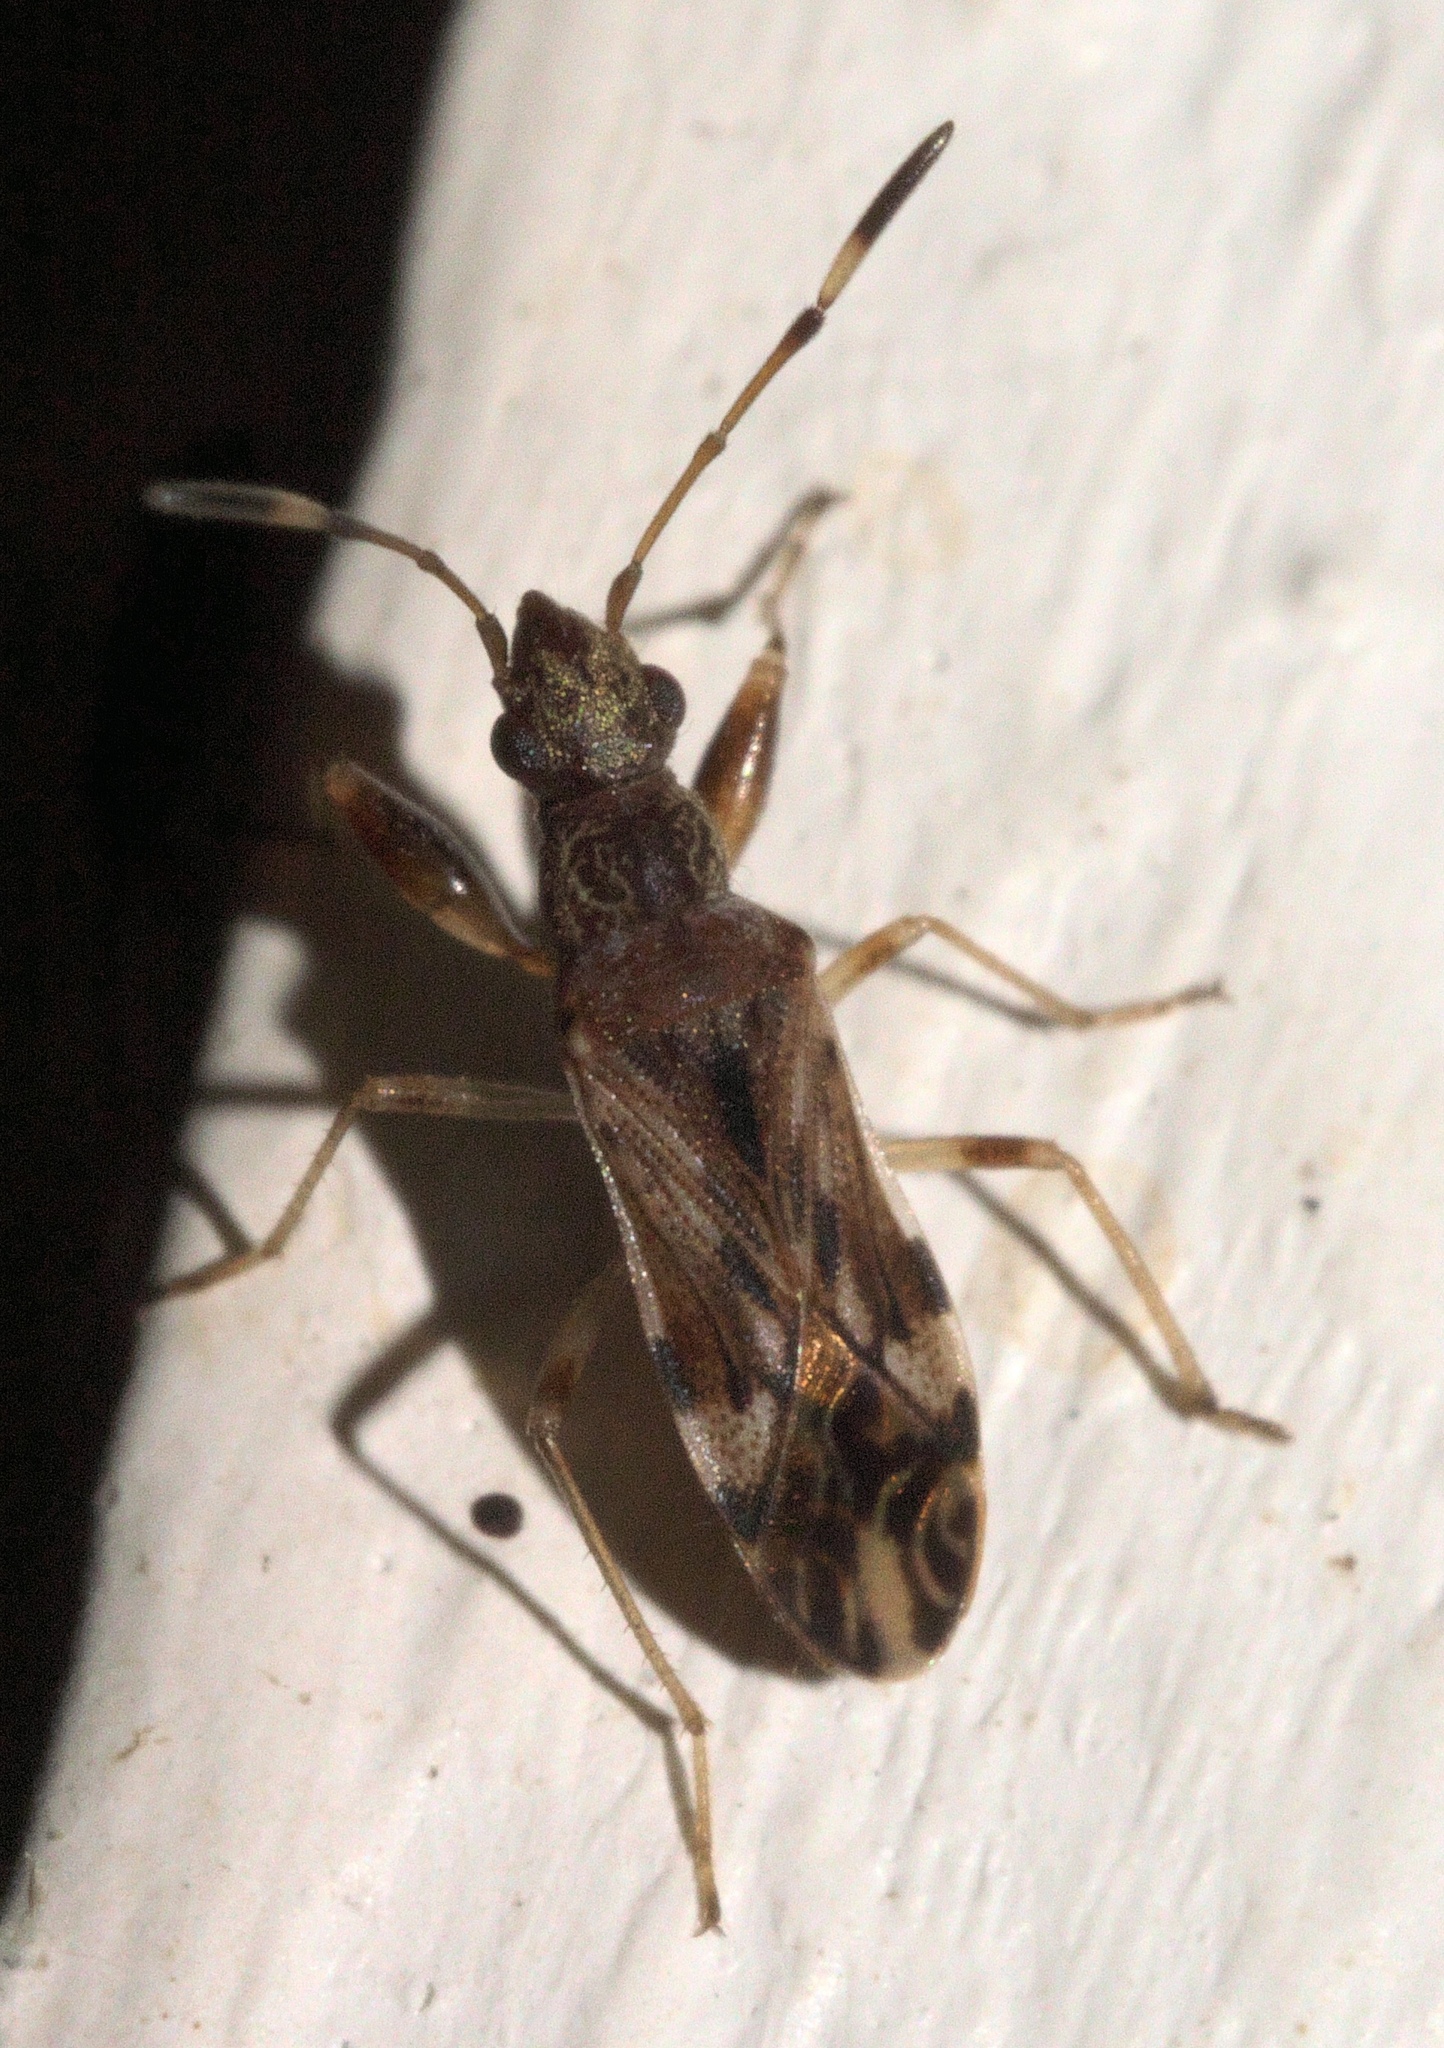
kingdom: Animalia
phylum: Arthropoda
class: Insecta
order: Hemiptera
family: Rhyparochromidae
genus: Neopamera
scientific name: Neopamera albocincta
